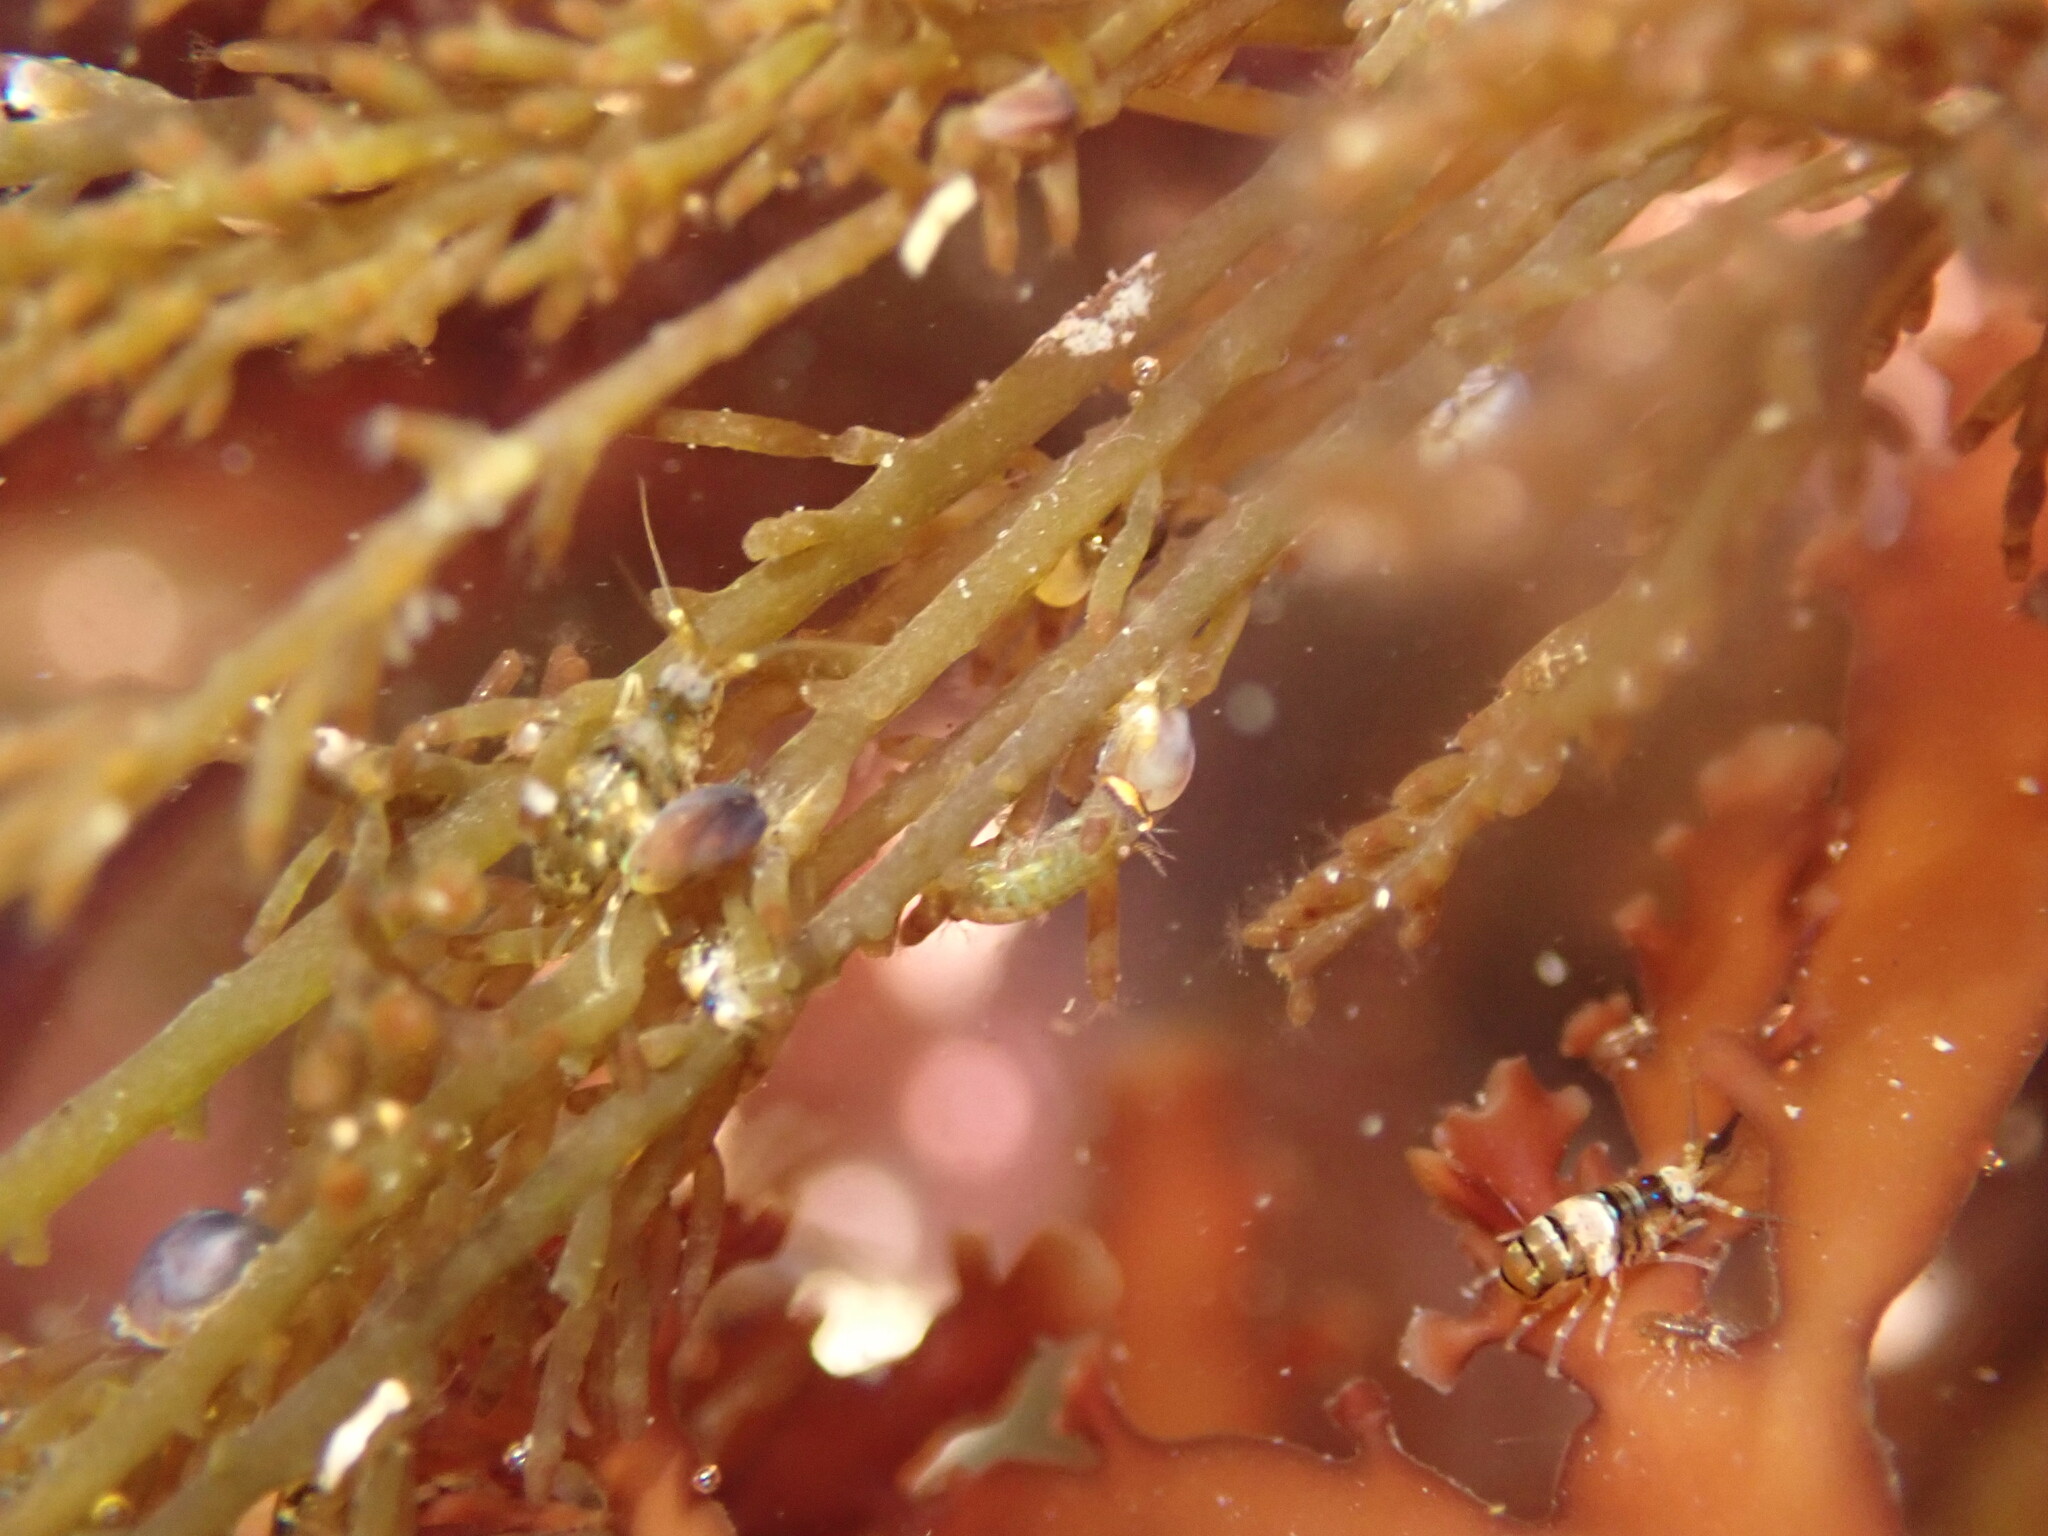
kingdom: Animalia
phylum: Mollusca
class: Bivalvia
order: Mytilida
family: Mytilidae
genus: Perna
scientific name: Perna canaliculus
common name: New zealand greenshelltm
